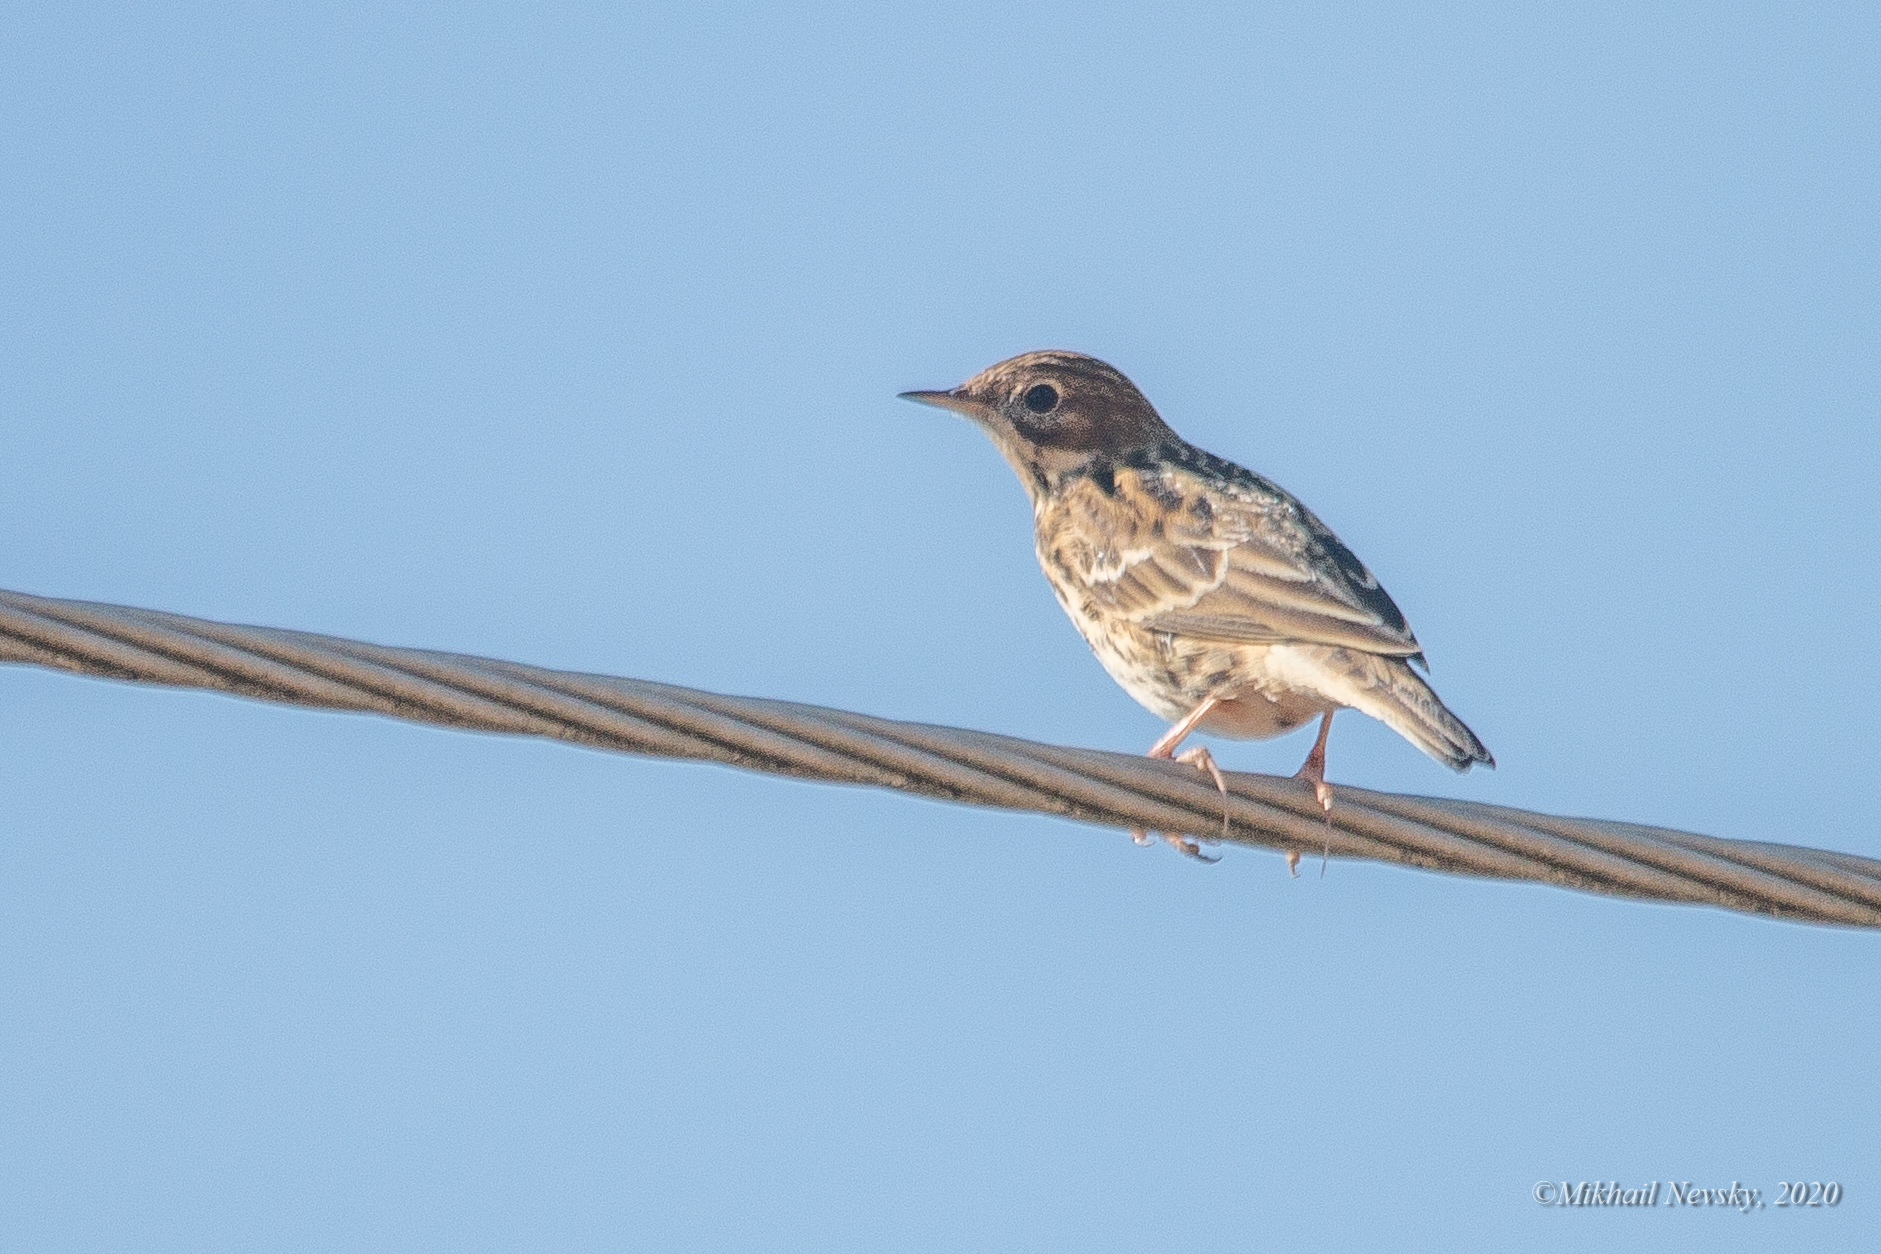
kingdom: Animalia
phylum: Chordata
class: Aves
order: Passeriformes
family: Motacillidae
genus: Anthus
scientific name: Anthus cervinus
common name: Red-throated pipit
